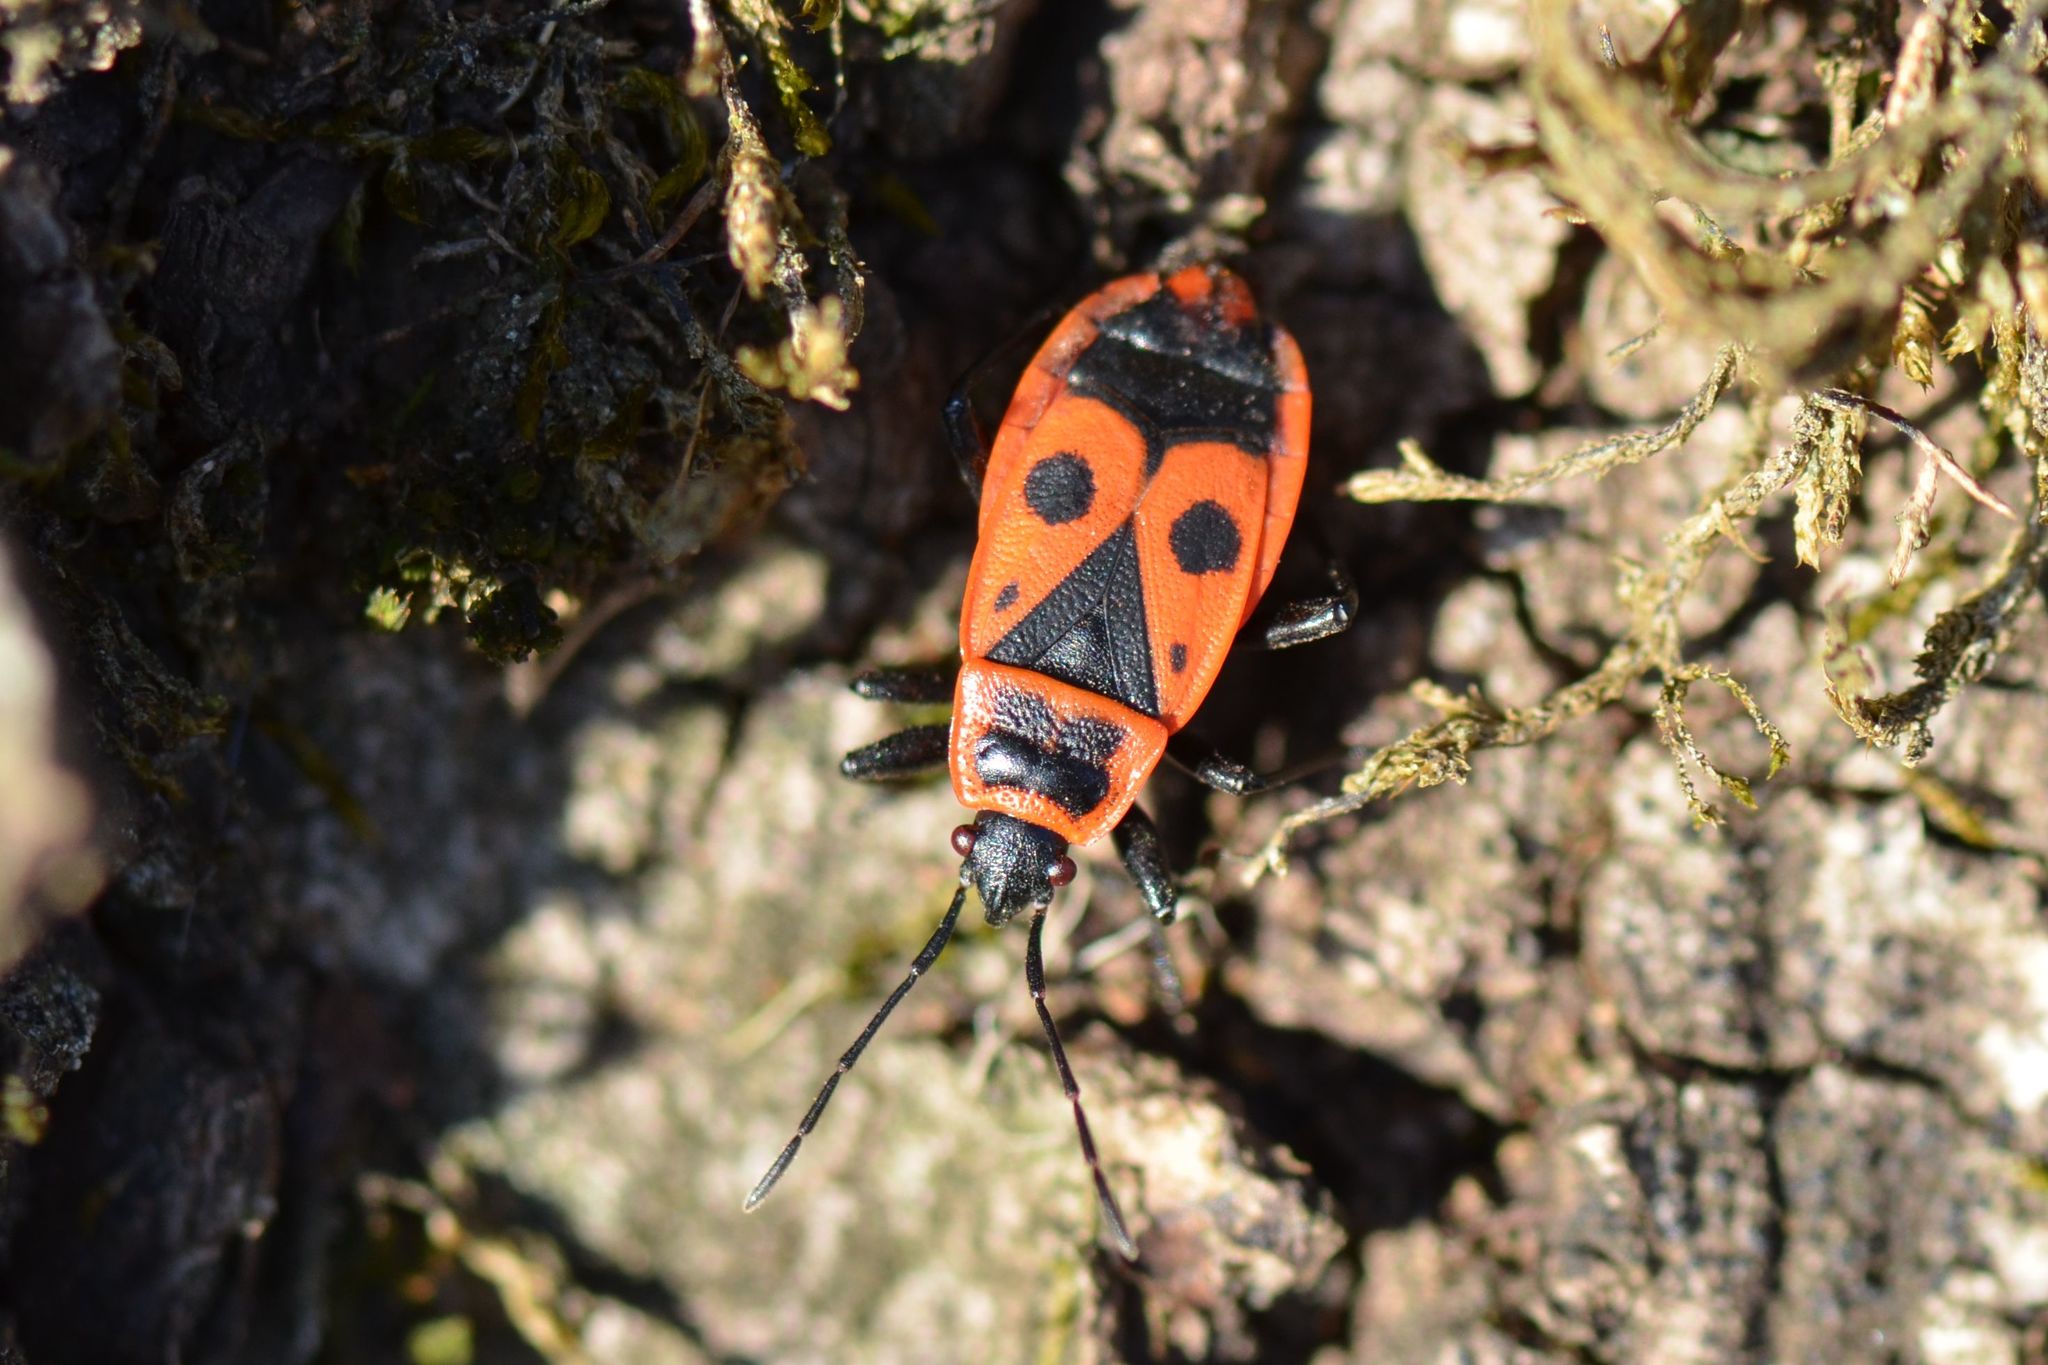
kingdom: Animalia
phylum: Arthropoda
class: Insecta
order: Hemiptera
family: Pyrrhocoridae
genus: Pyrrhocoris
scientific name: Pyrrhocoris apterus
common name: Firebug
